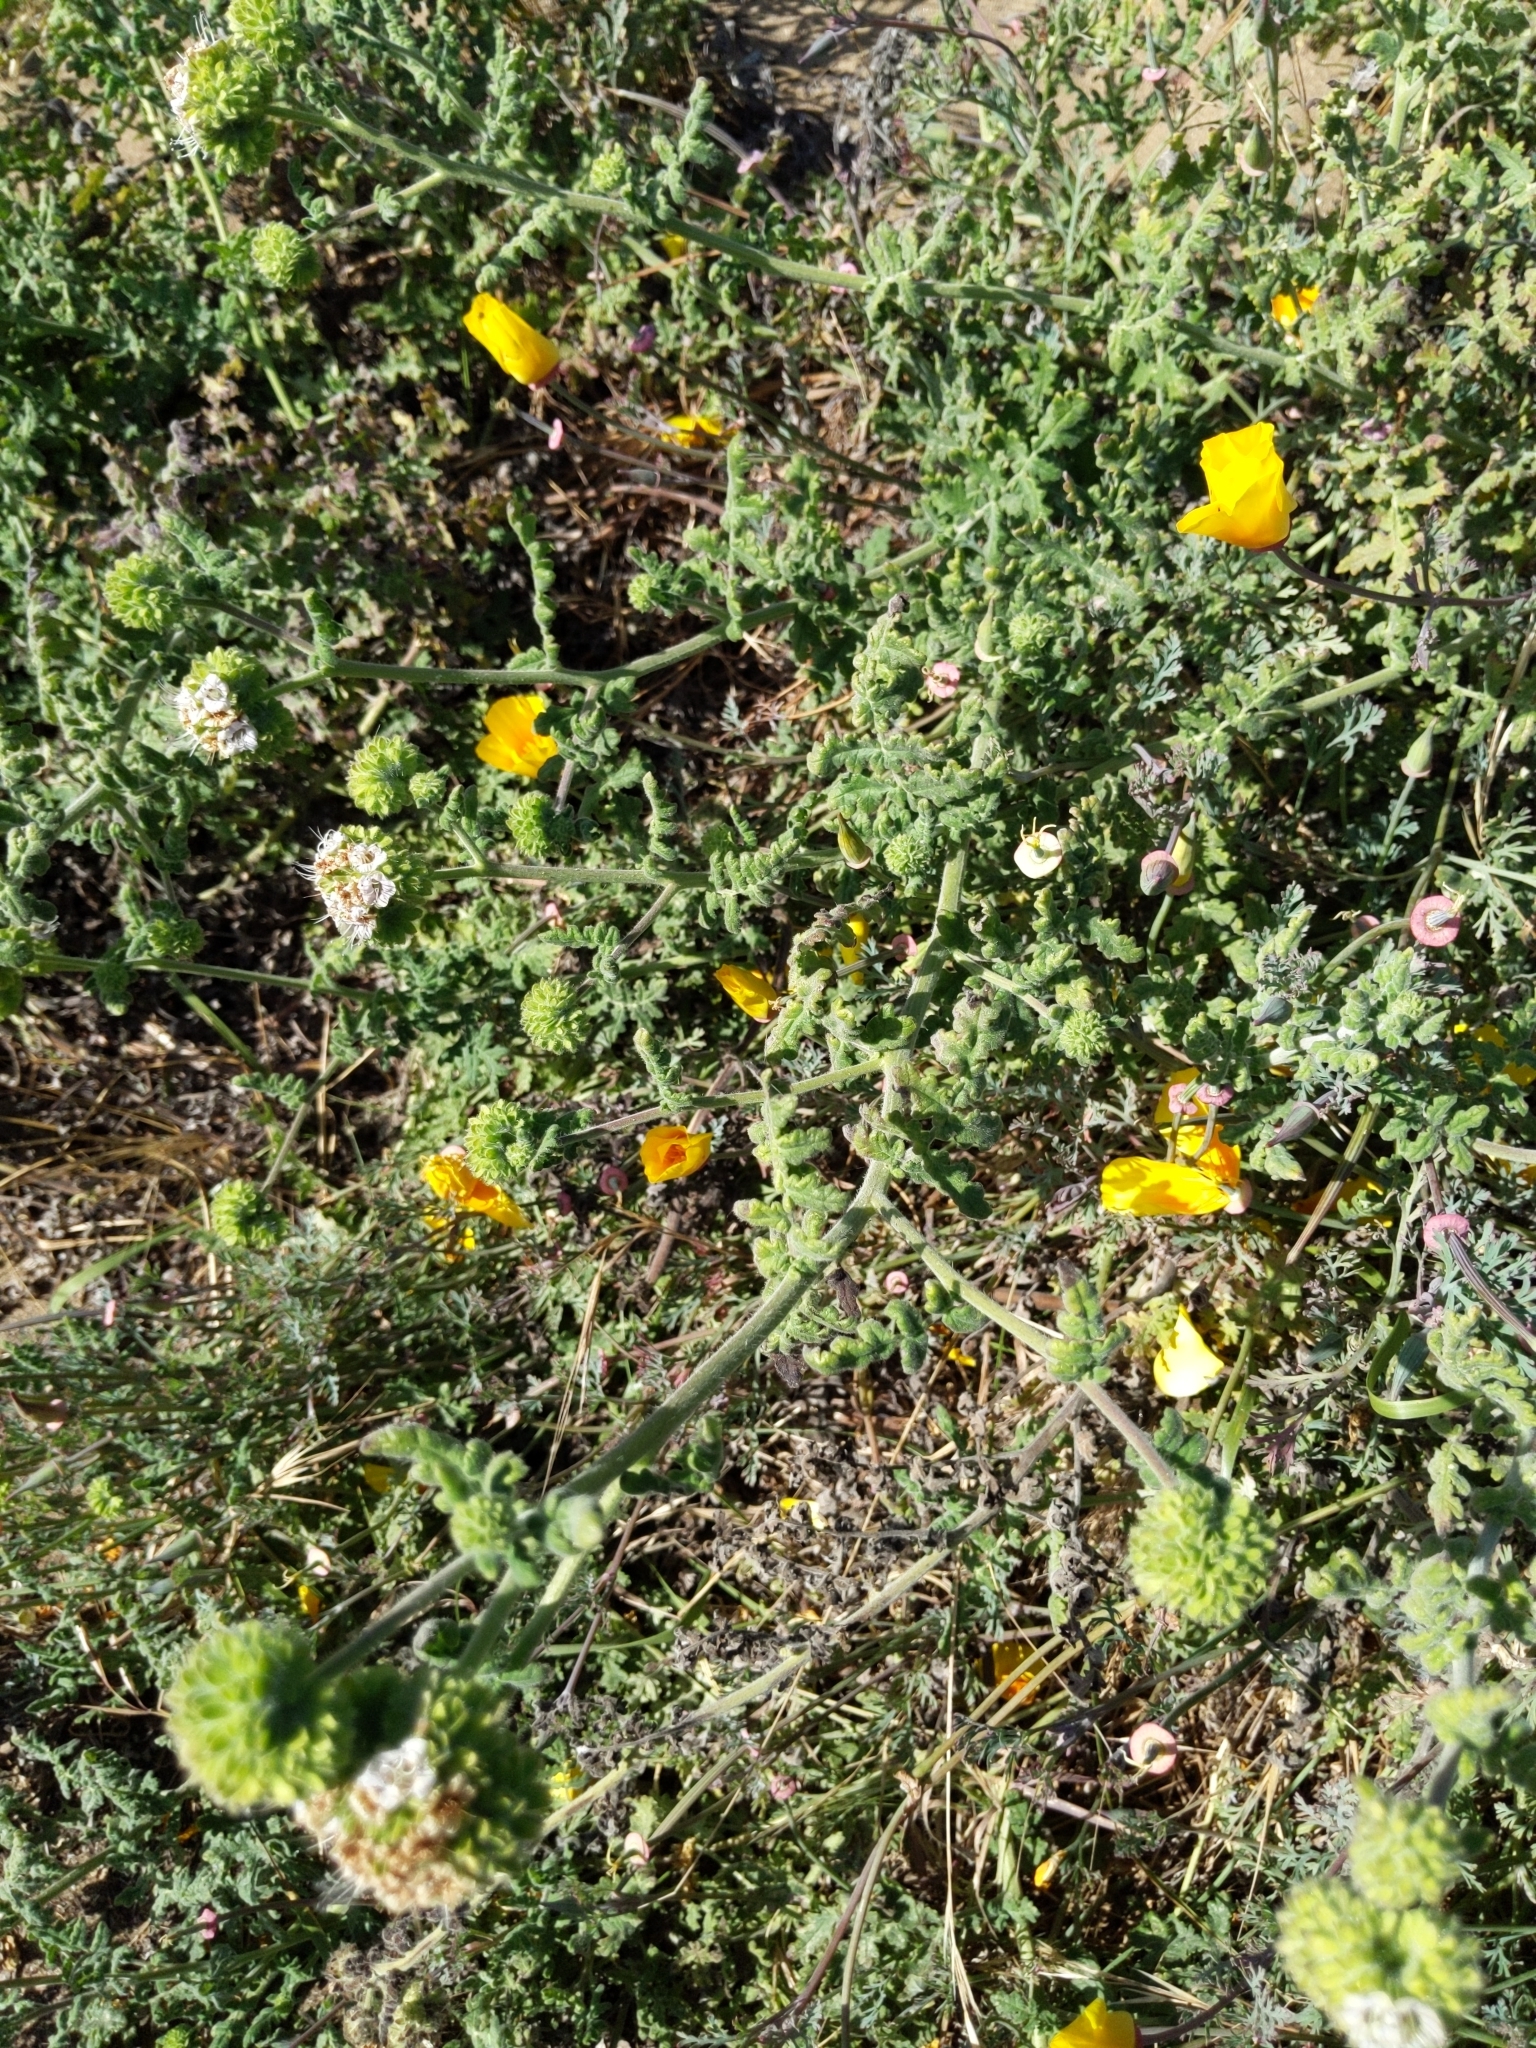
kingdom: Plantae
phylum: Tracheophyta
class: Magnoliopsida
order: Boraginales
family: Hydrophyllaceae
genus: Phacelia
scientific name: Phacelia ramosissima
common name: Branching phacelia
